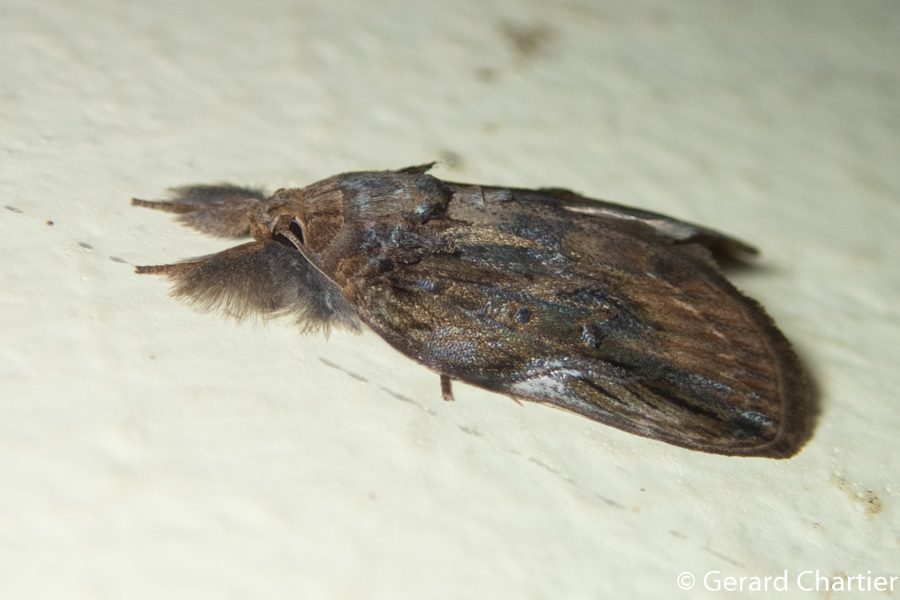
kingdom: Animalia
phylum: Arthropoda
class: Insecta
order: Lepidoptera
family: Nolidae
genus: Lamprothripa
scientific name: Lamprothripa scotia
